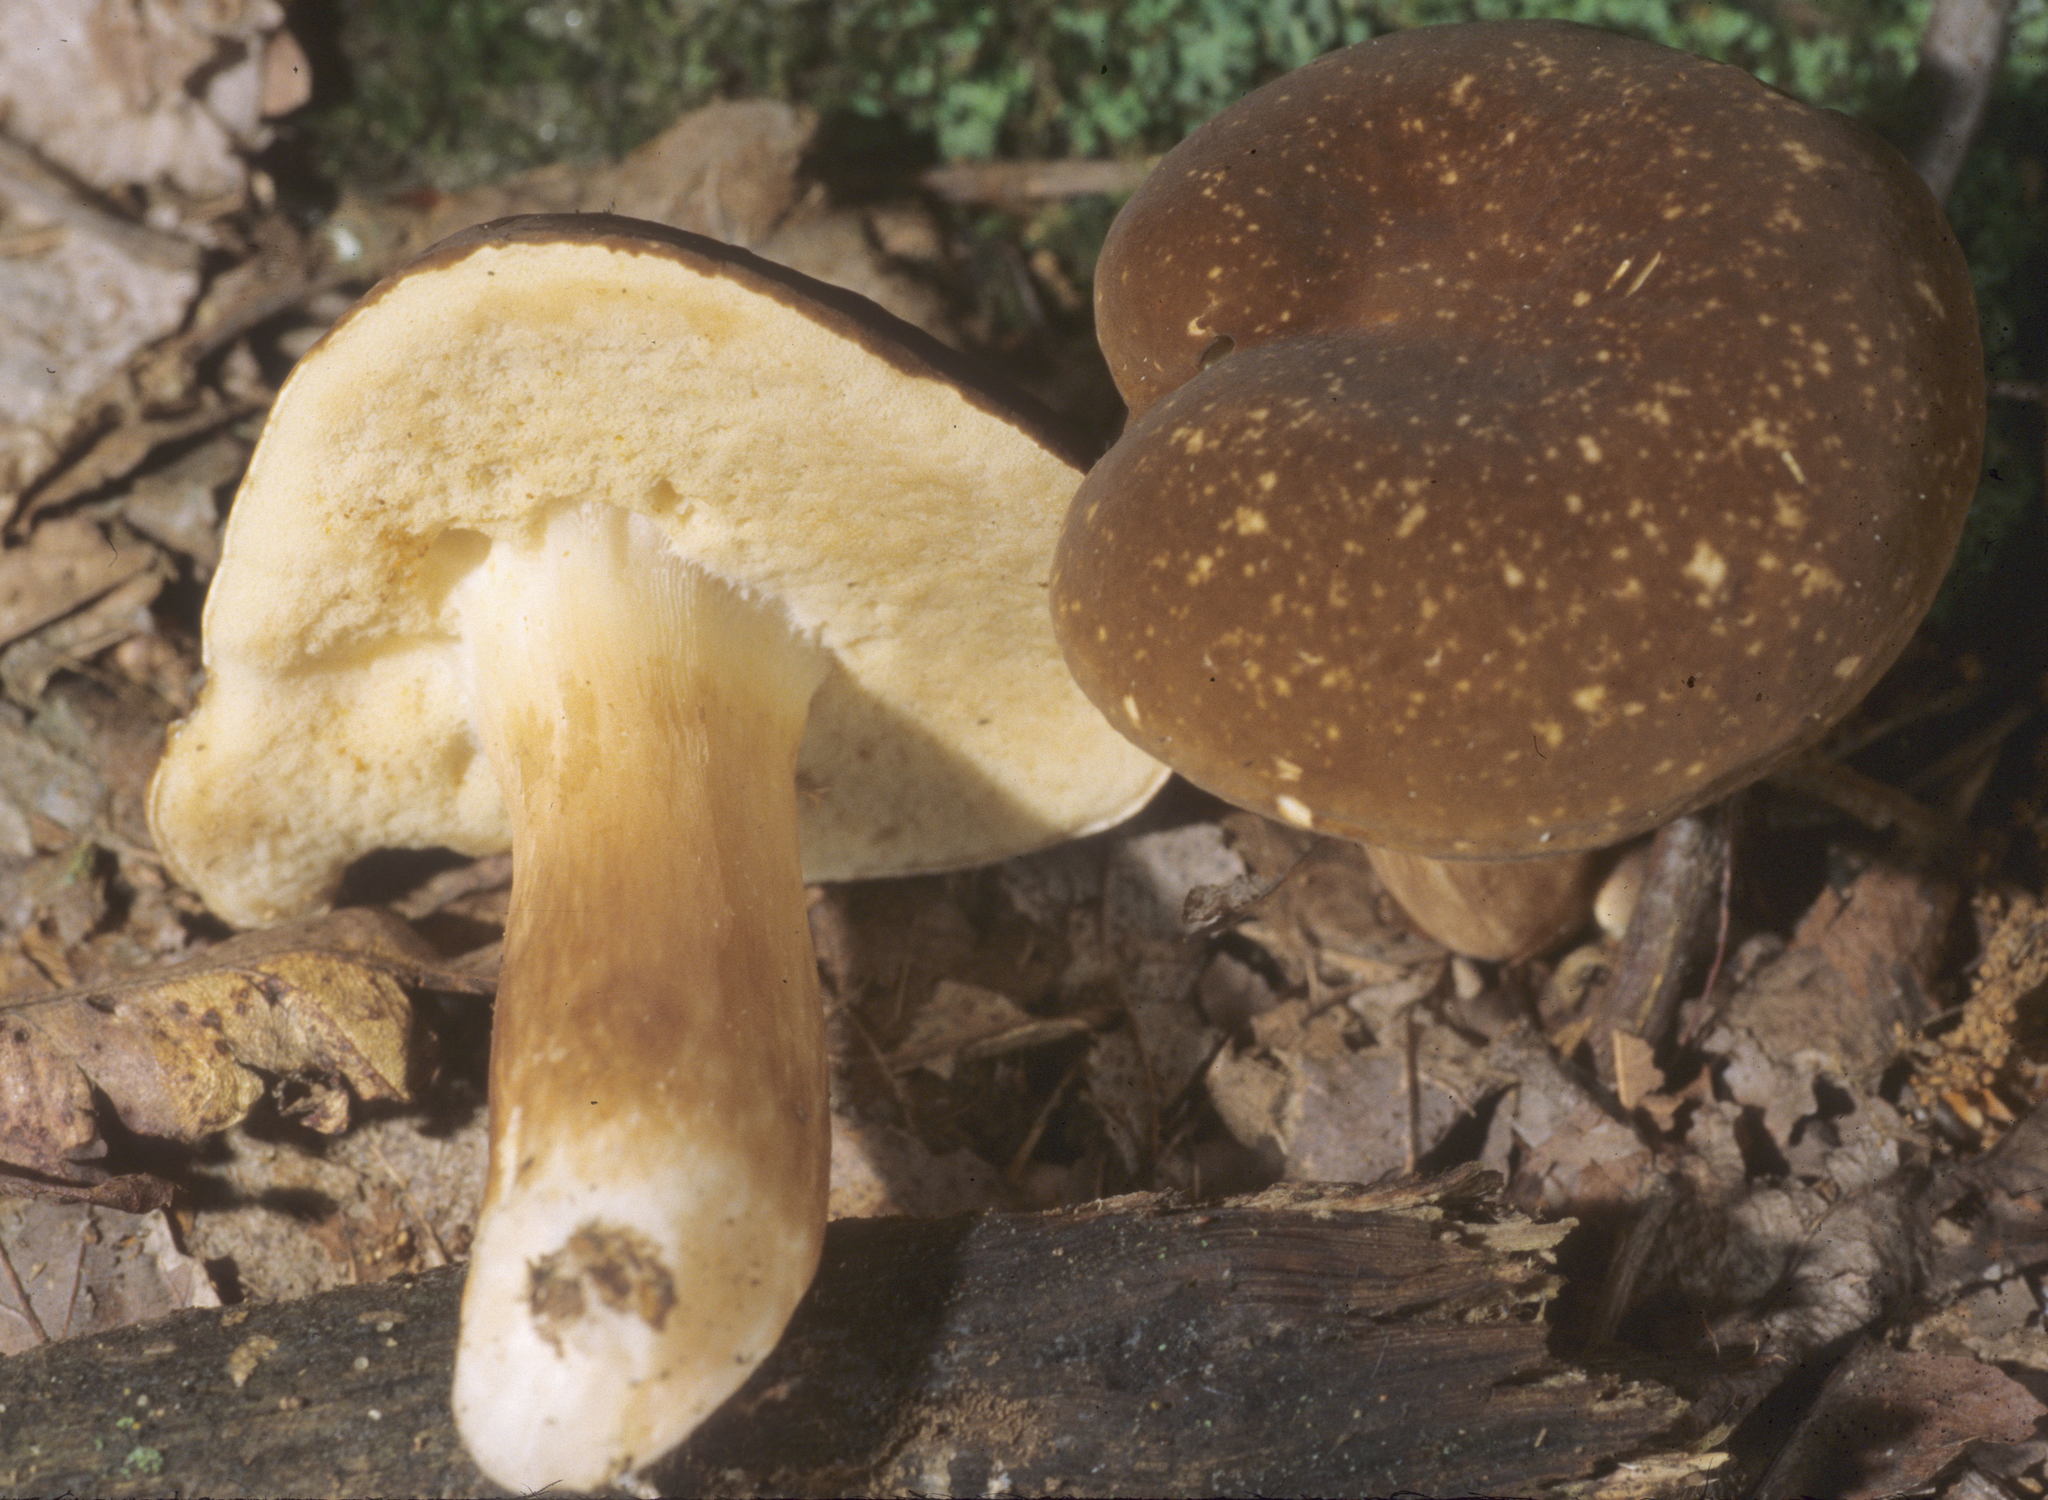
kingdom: Fungi
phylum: Basidiomycota
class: Agaricomycetes
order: Boletales
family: Boletaceae
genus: Xanthoconium
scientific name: Xanthoconium affine
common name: Spotted bolete
